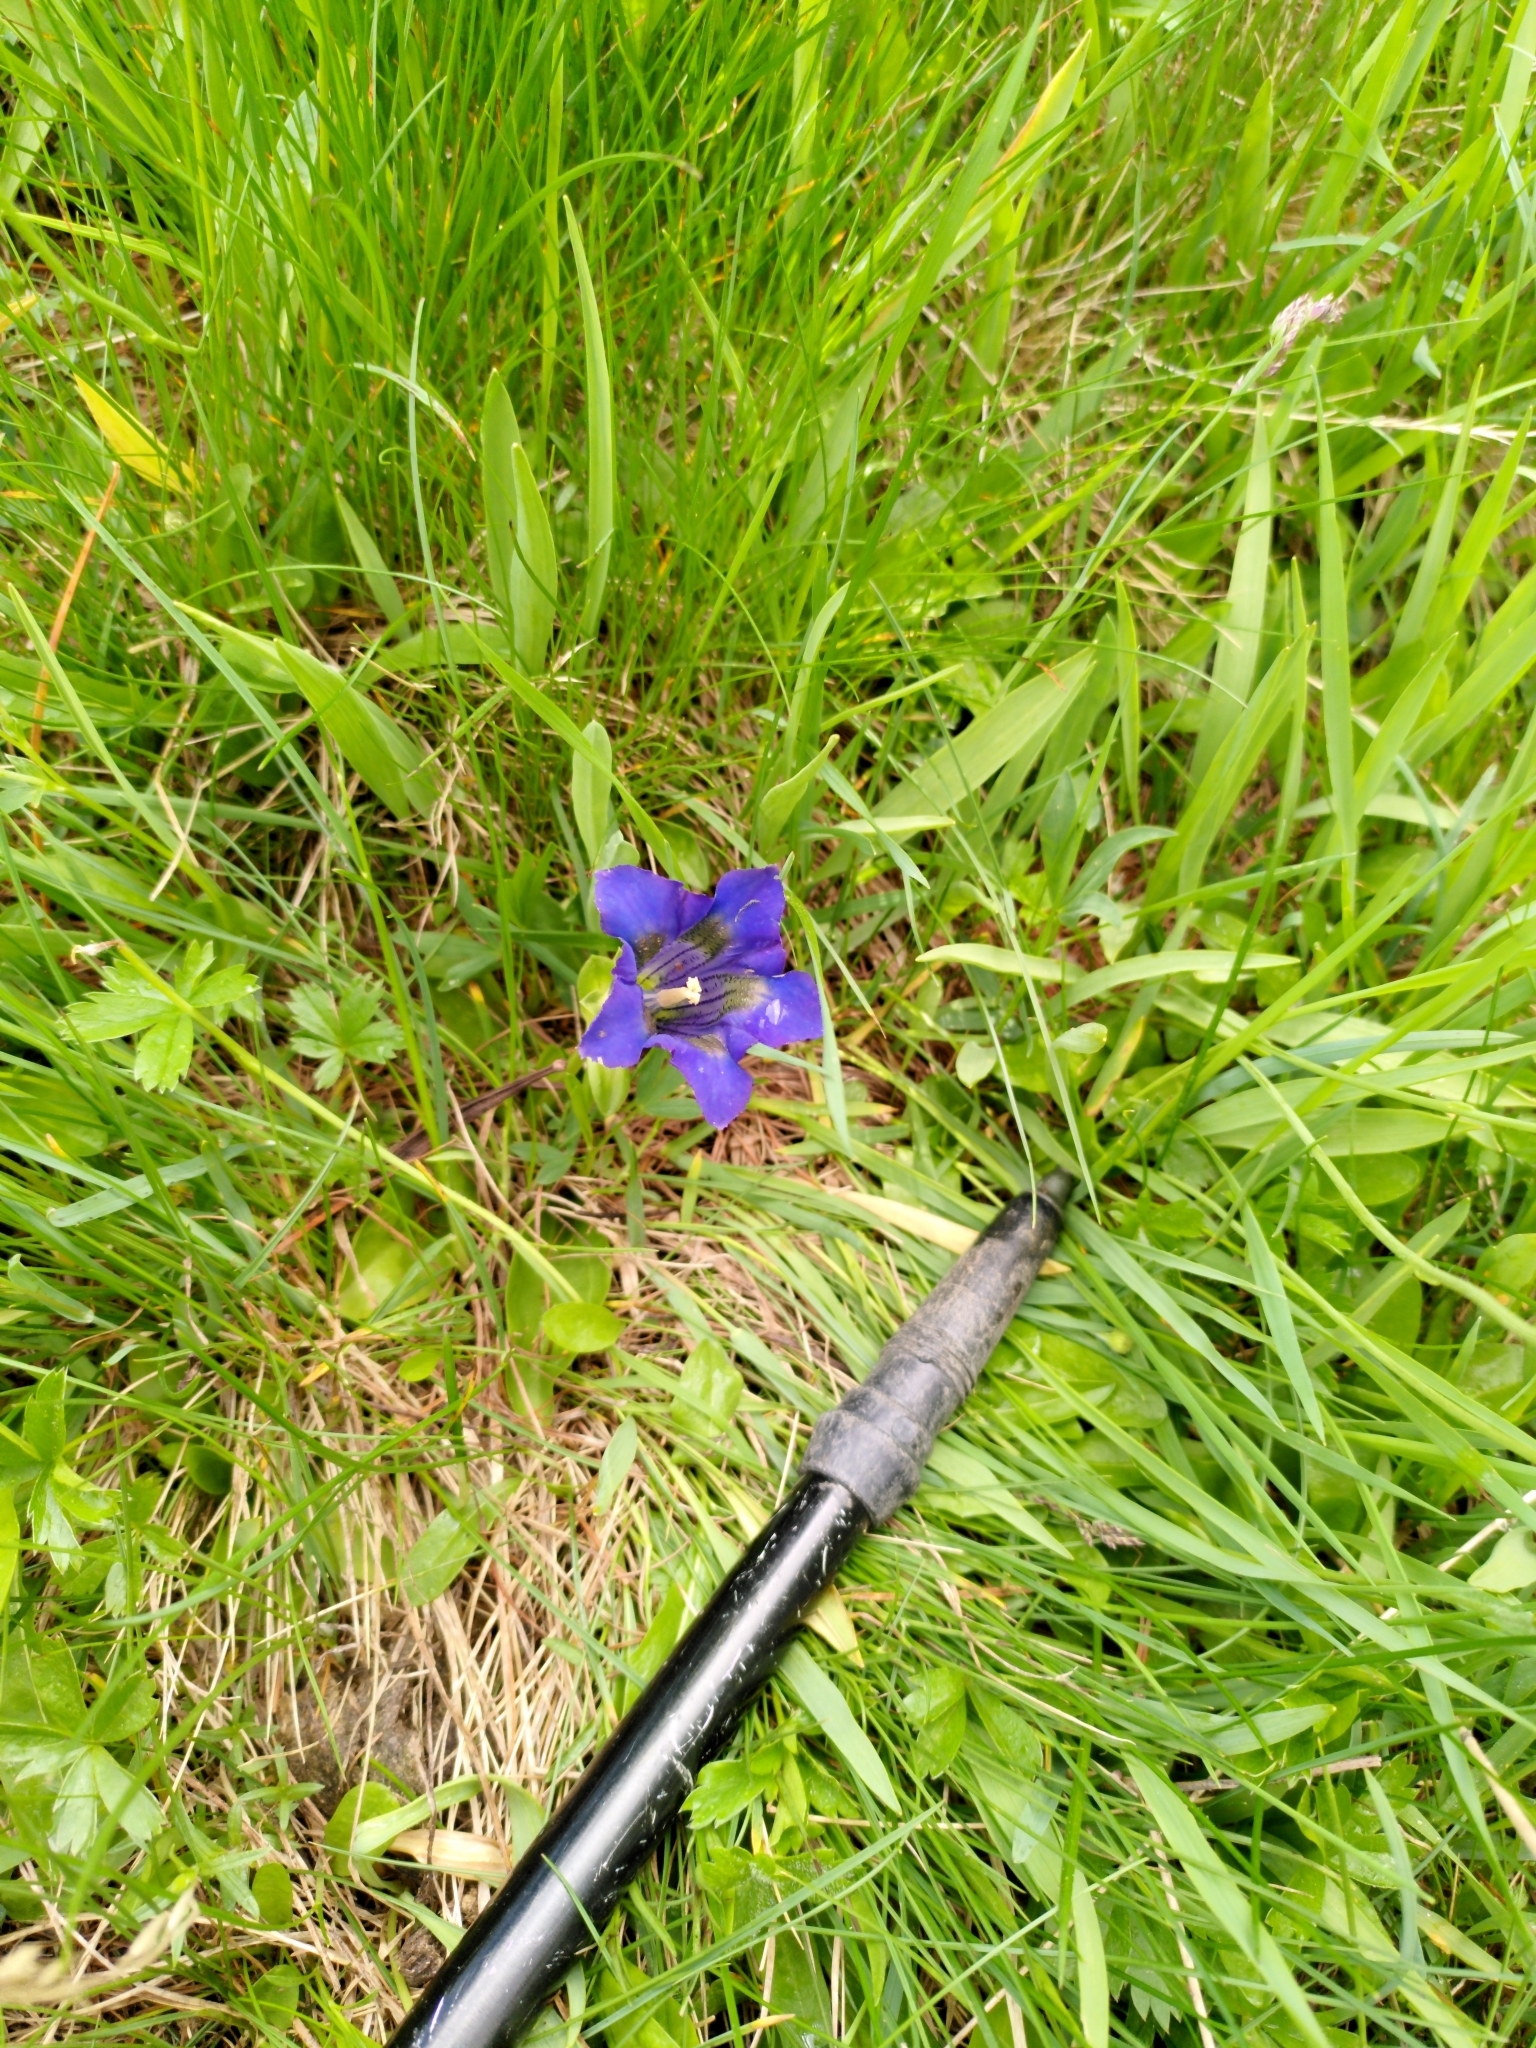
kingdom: Plantae
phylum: Tracheophyta
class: Magnoliopsida
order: Gentianales
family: Gentianaceae
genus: Gentiana
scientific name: Gentiana acaulis
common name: Trumpet gentian
